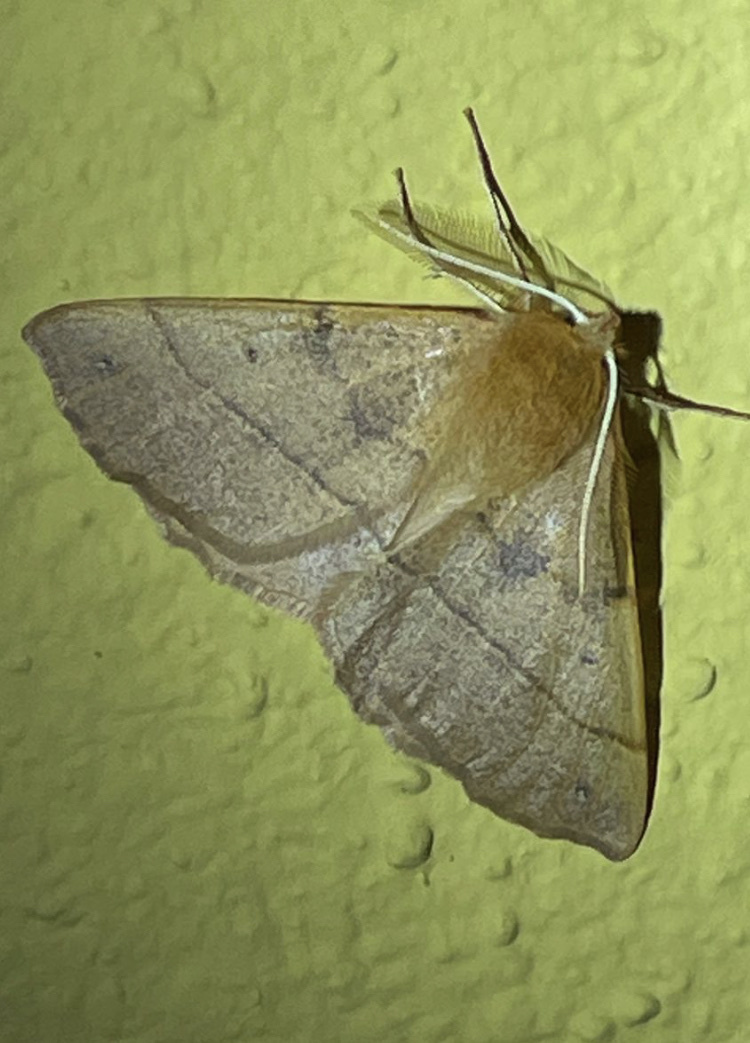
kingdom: Animalia
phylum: Arthropoda
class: Insecta
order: Lepidoptera
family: Geometridae
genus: Colotois
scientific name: Colotois pennaria
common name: Feathered thorn
